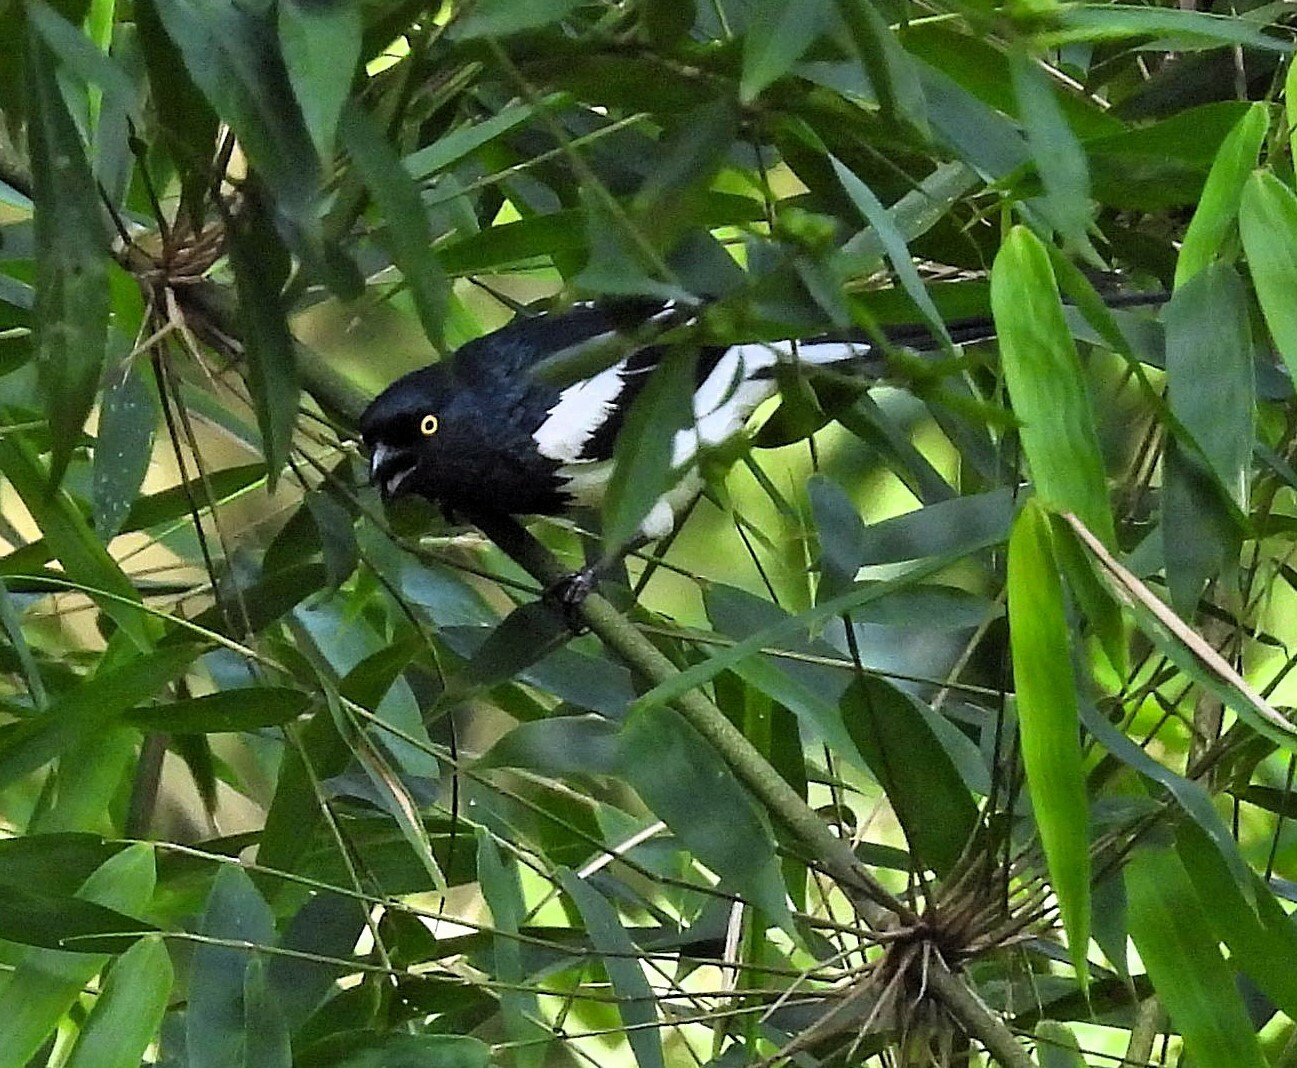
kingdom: Animalia
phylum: Chordata
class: Aves
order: Passeriformes
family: Thraupidae
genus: Cissopis
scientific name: Cissopis leverianus
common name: Magpie tanager
